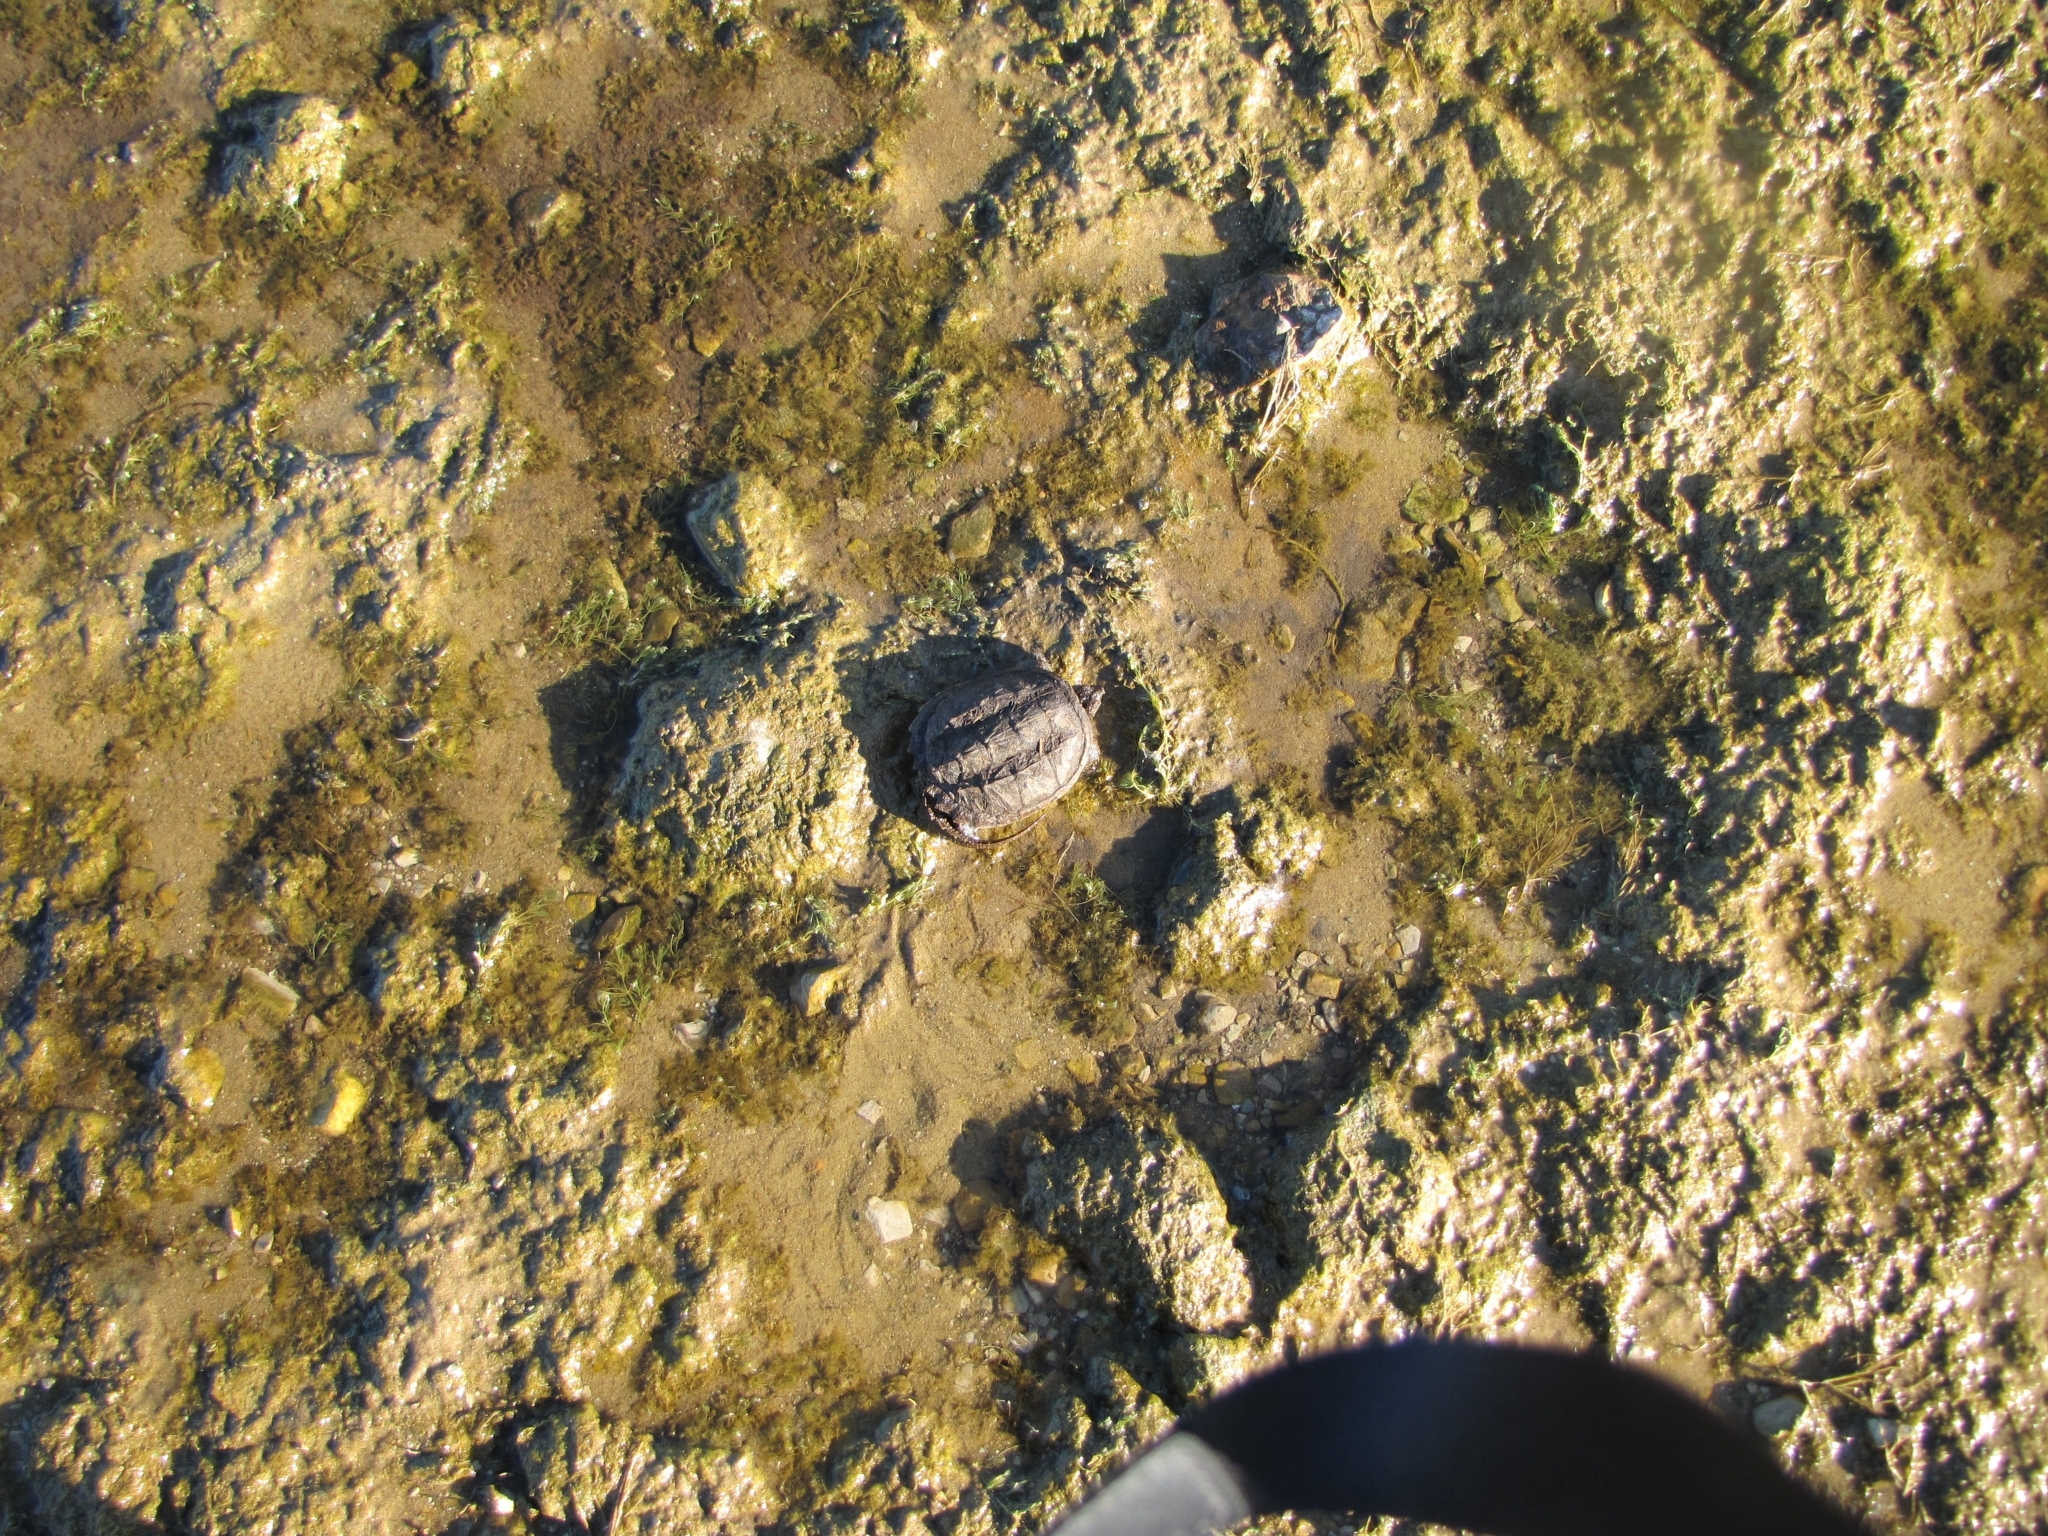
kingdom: Animalia
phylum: Chordata
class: Testudines
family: Chelydridae
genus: Chelydra
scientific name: Chelydra serpentina
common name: Common snapping turtle
